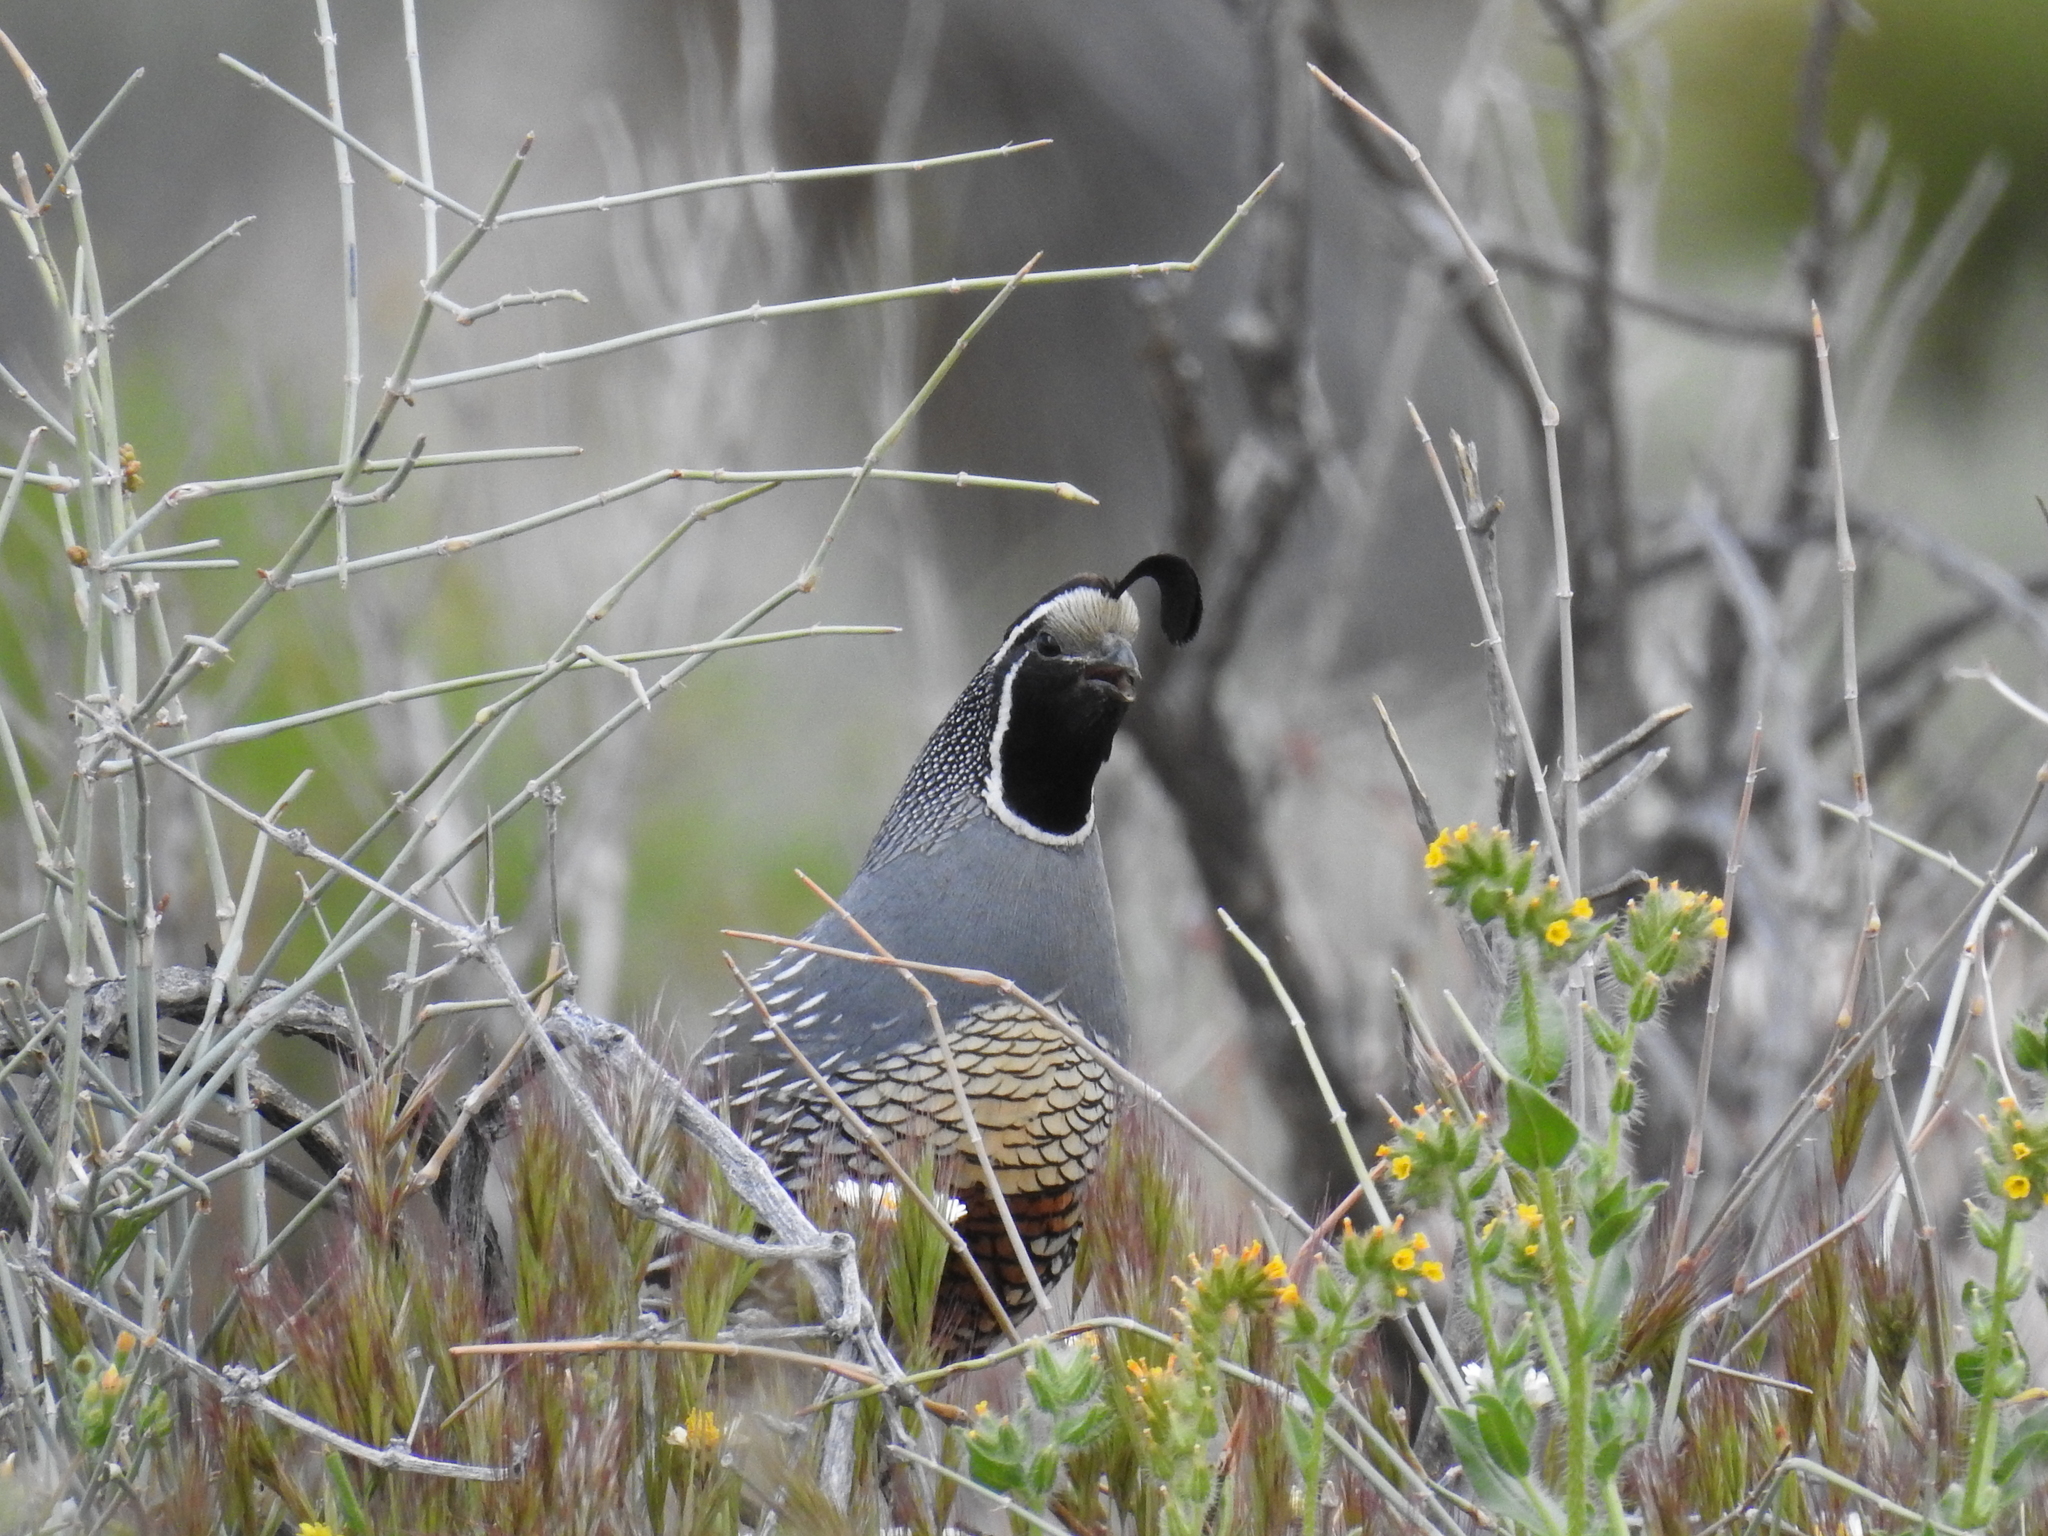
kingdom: Animalia
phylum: Chordata
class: Aves
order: Galliformes
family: Odontophoridae
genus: Callipepla
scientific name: Callipepla californica
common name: California quail
